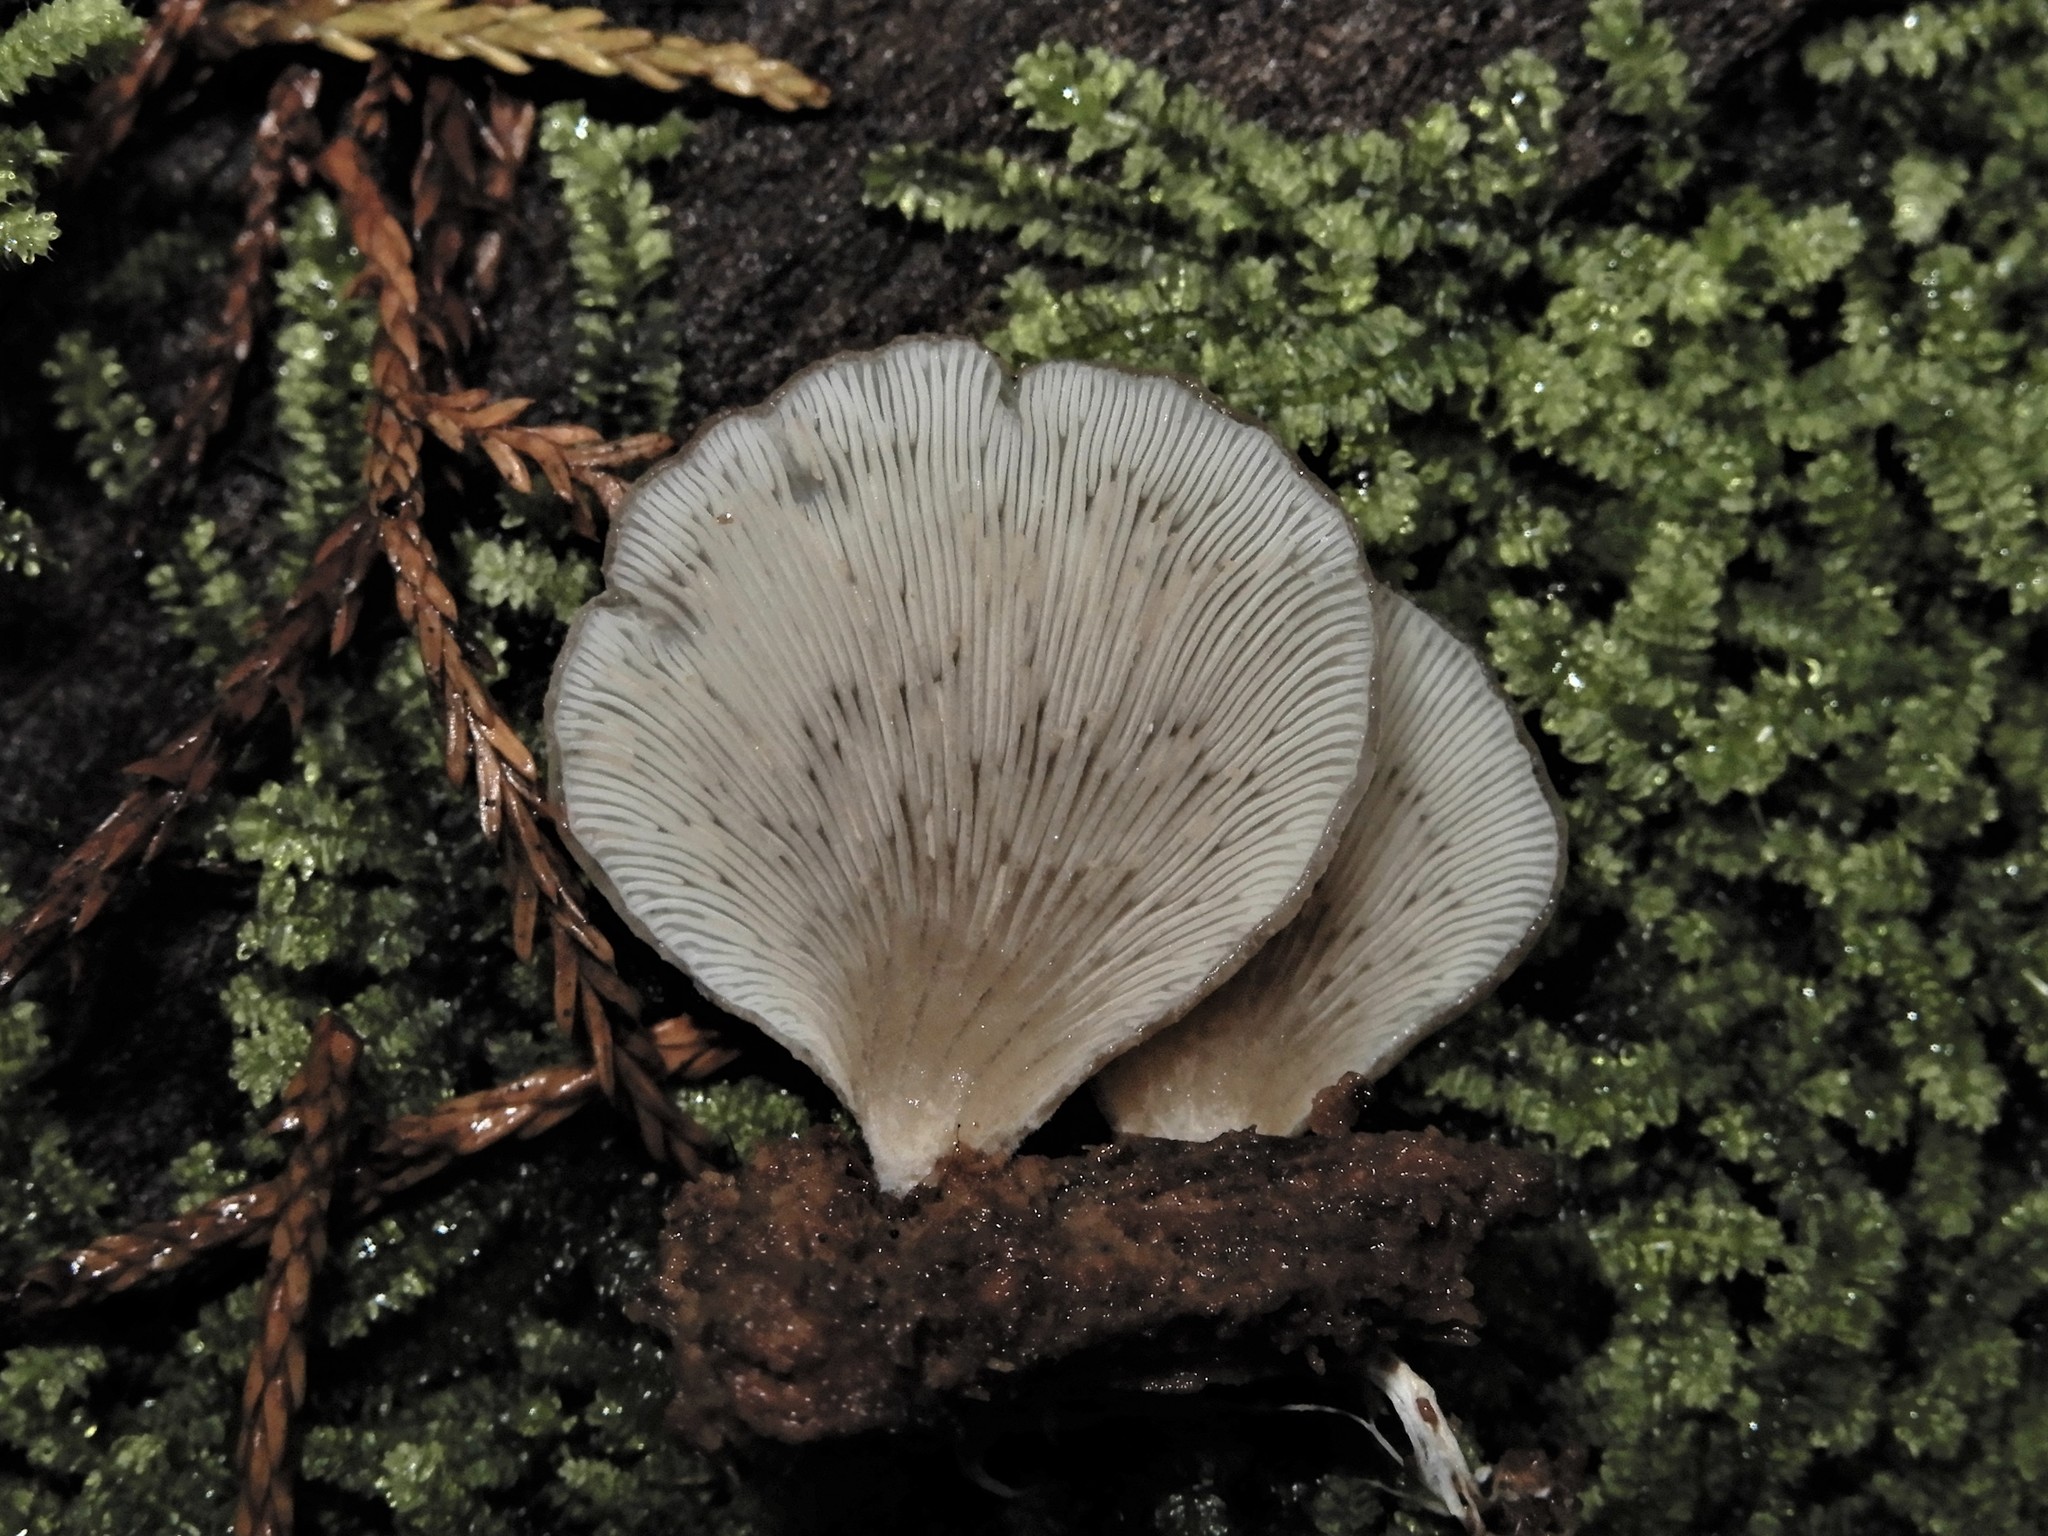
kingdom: Fungi
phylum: Basidiomycota
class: Agaricomycetes
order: Agaricales
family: Mycenaceae
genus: Panellus
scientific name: Panellus longinquus
